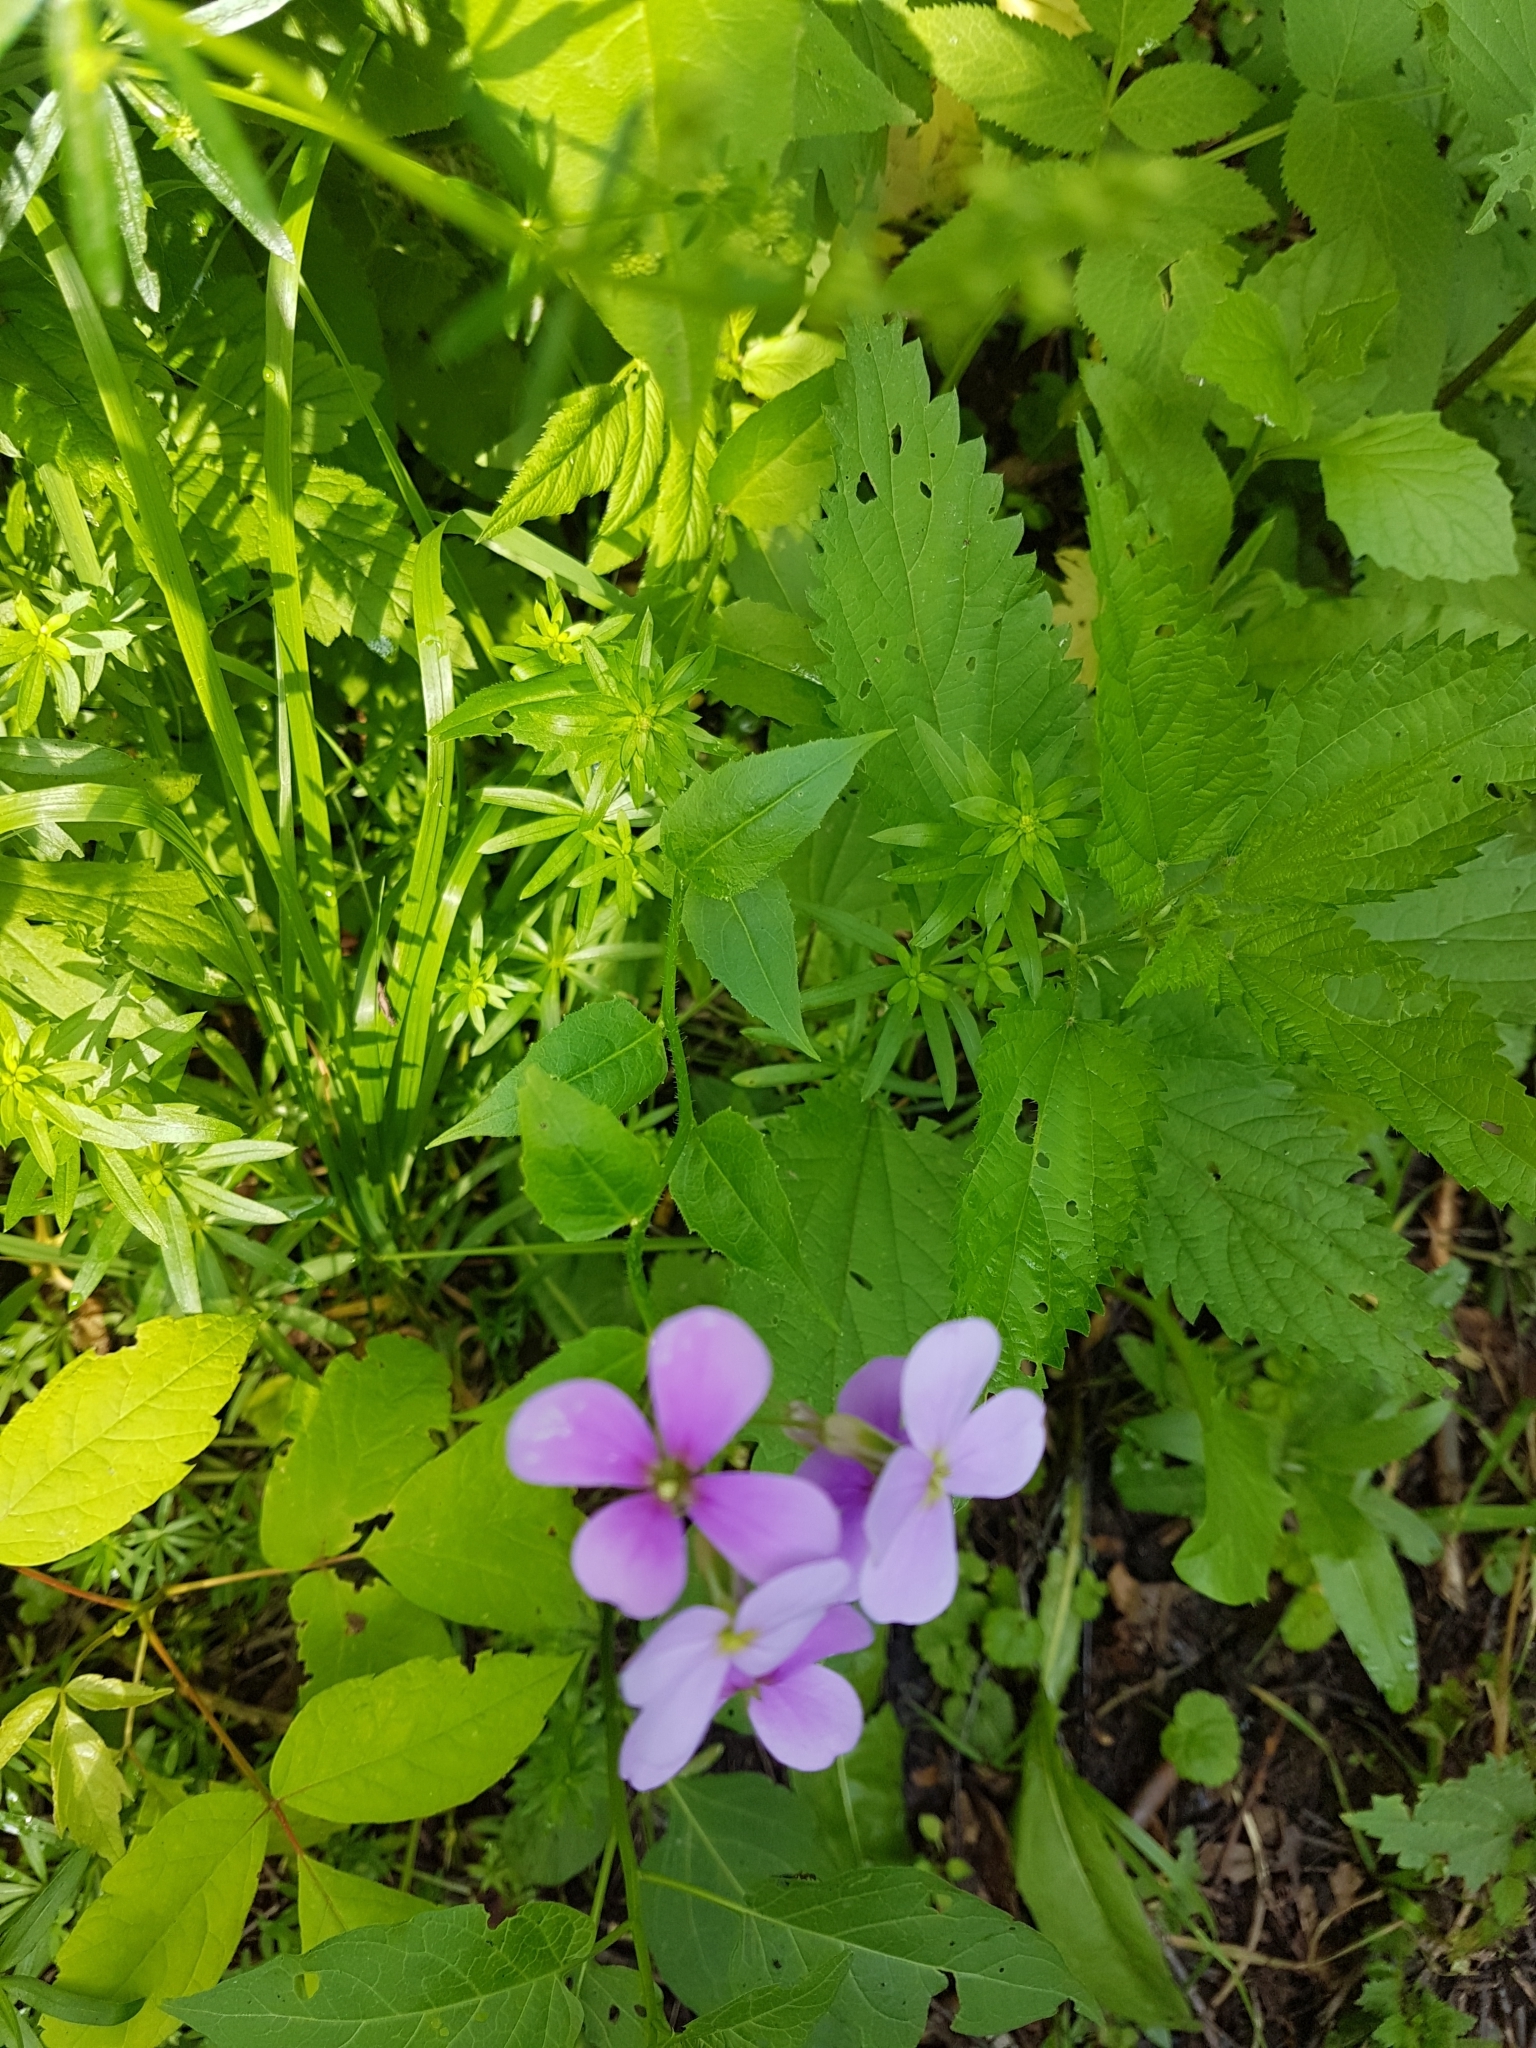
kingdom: Plantae
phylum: Tracheophyta
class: Magnoliopsida
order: Brassicales
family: Brassicaceae
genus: Hesperis
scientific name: Hesperis matronalis
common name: Dame's-violet
